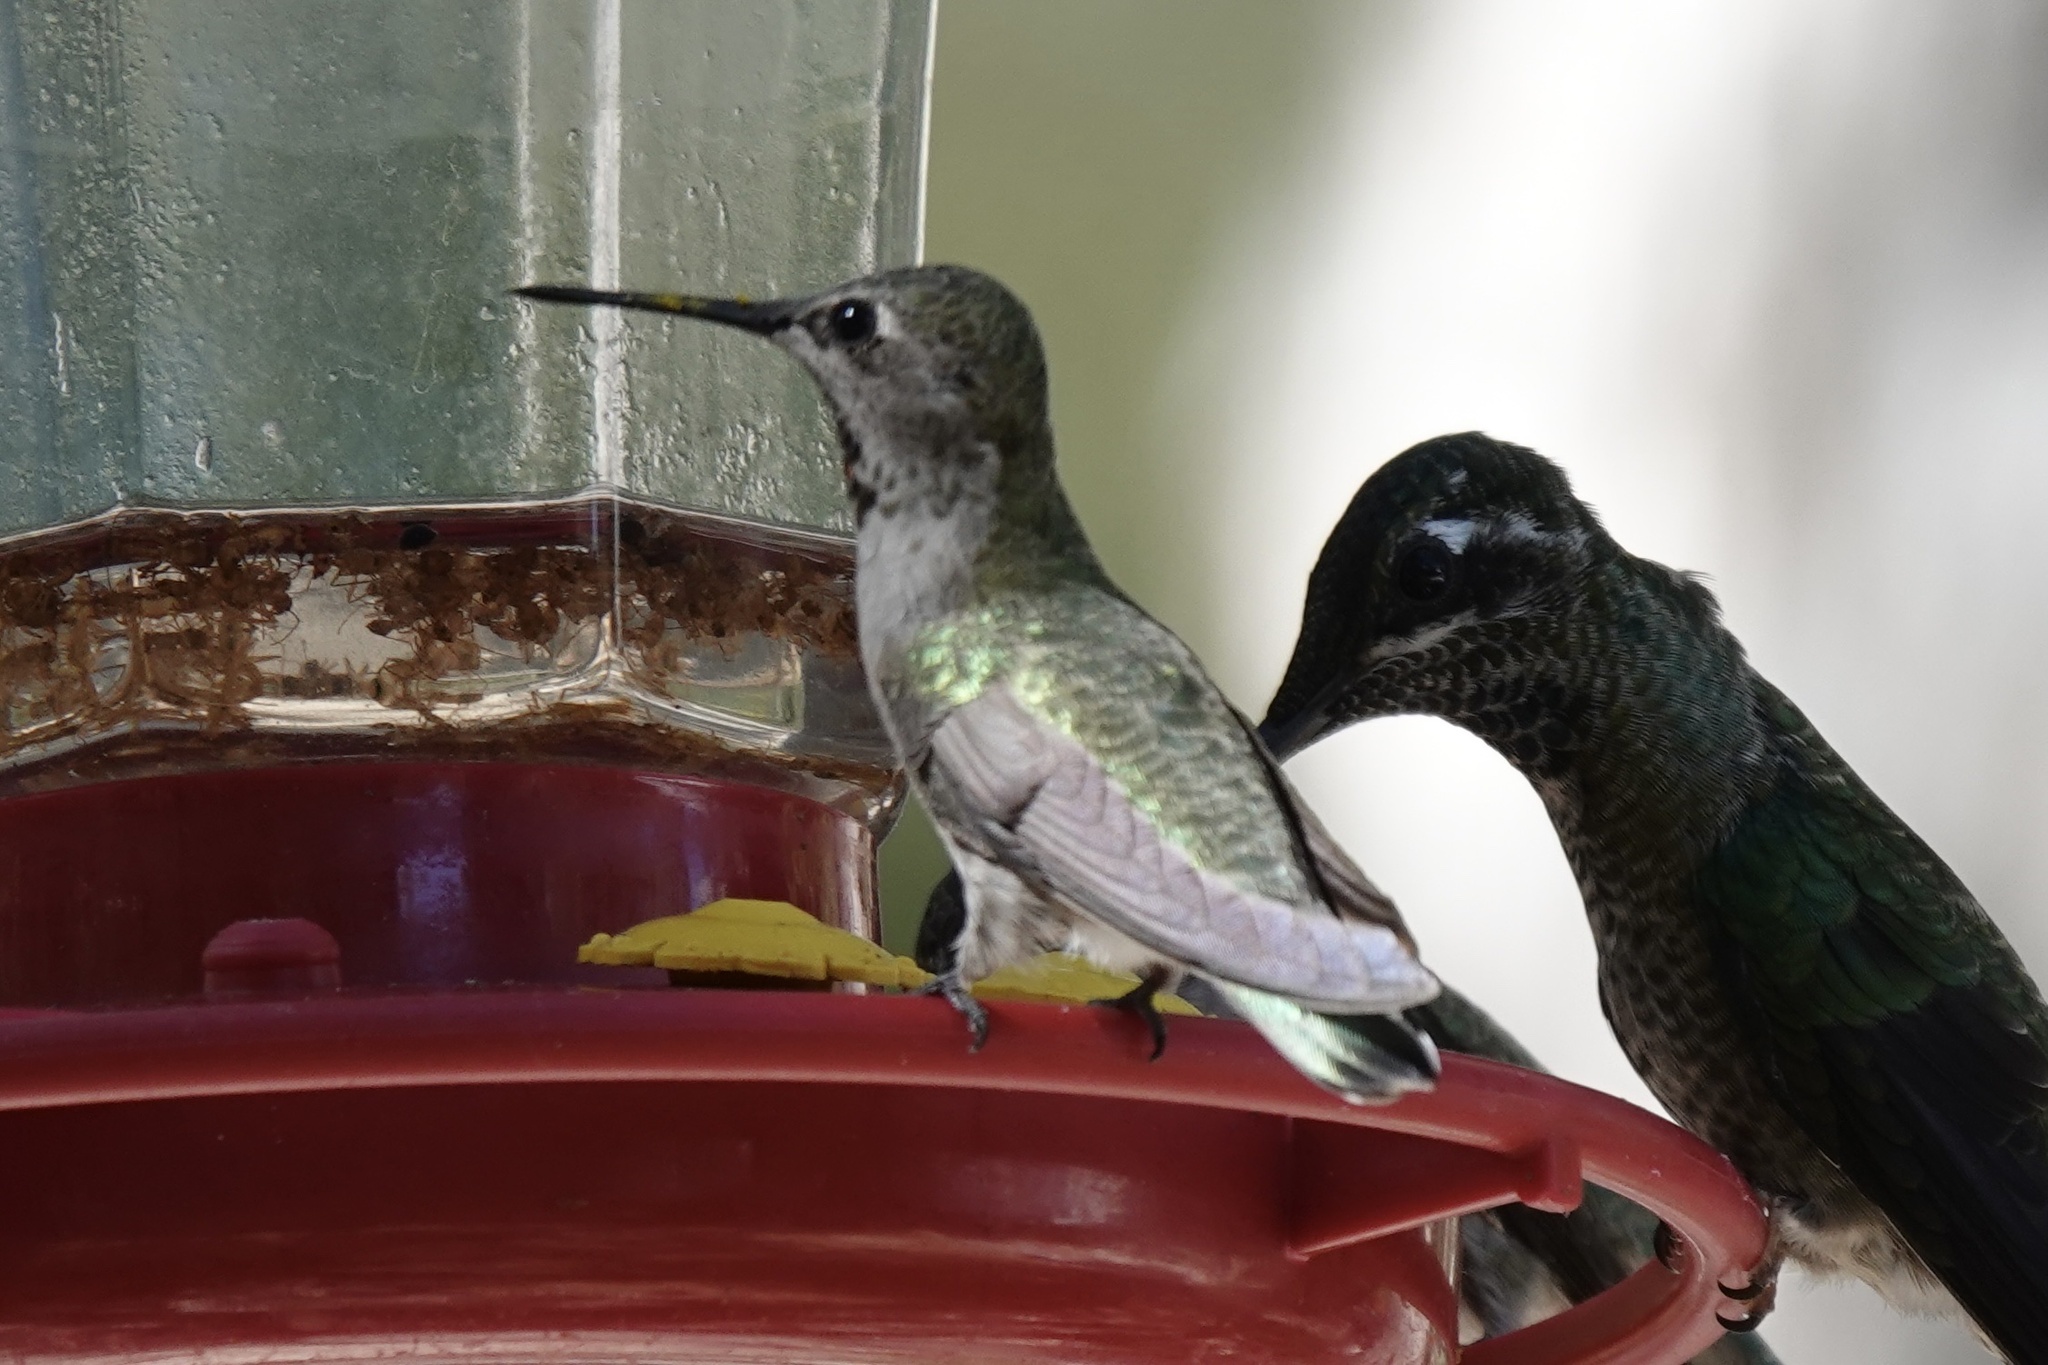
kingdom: Animalia
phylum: Chordata
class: Aves
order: Apodiformes
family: Trochilidae
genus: Calypte
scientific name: Calypte anna
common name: Anna's hummingbird
